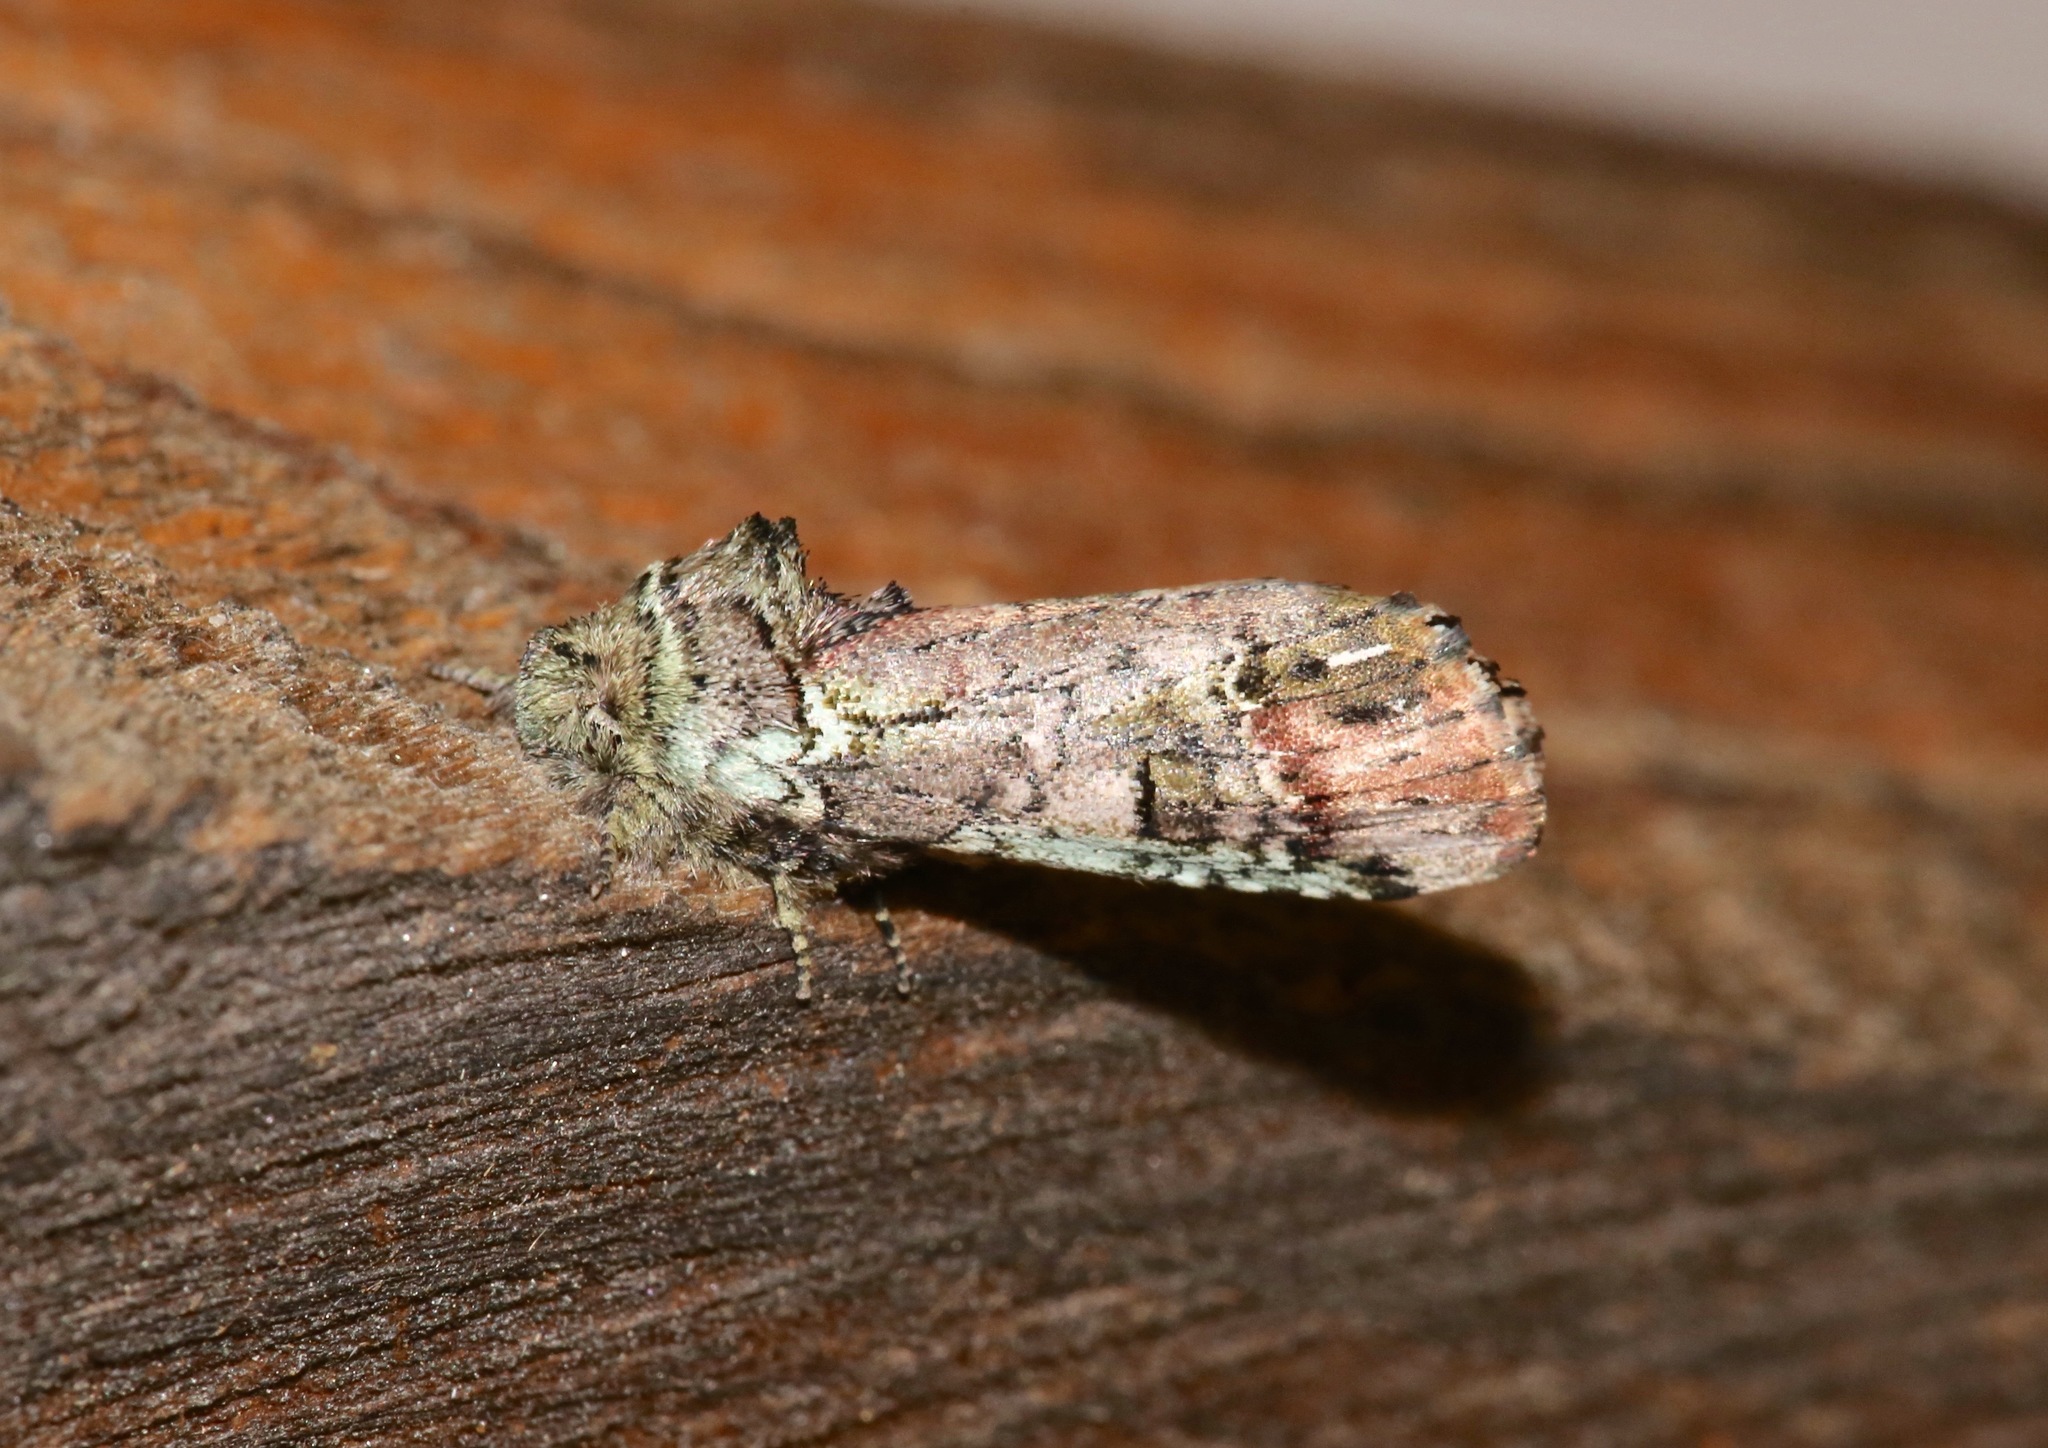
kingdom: Animalia
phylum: Arthropoda
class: Insecta
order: Lepidoptera
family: Notodontidae
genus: Schizura
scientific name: Schizura
